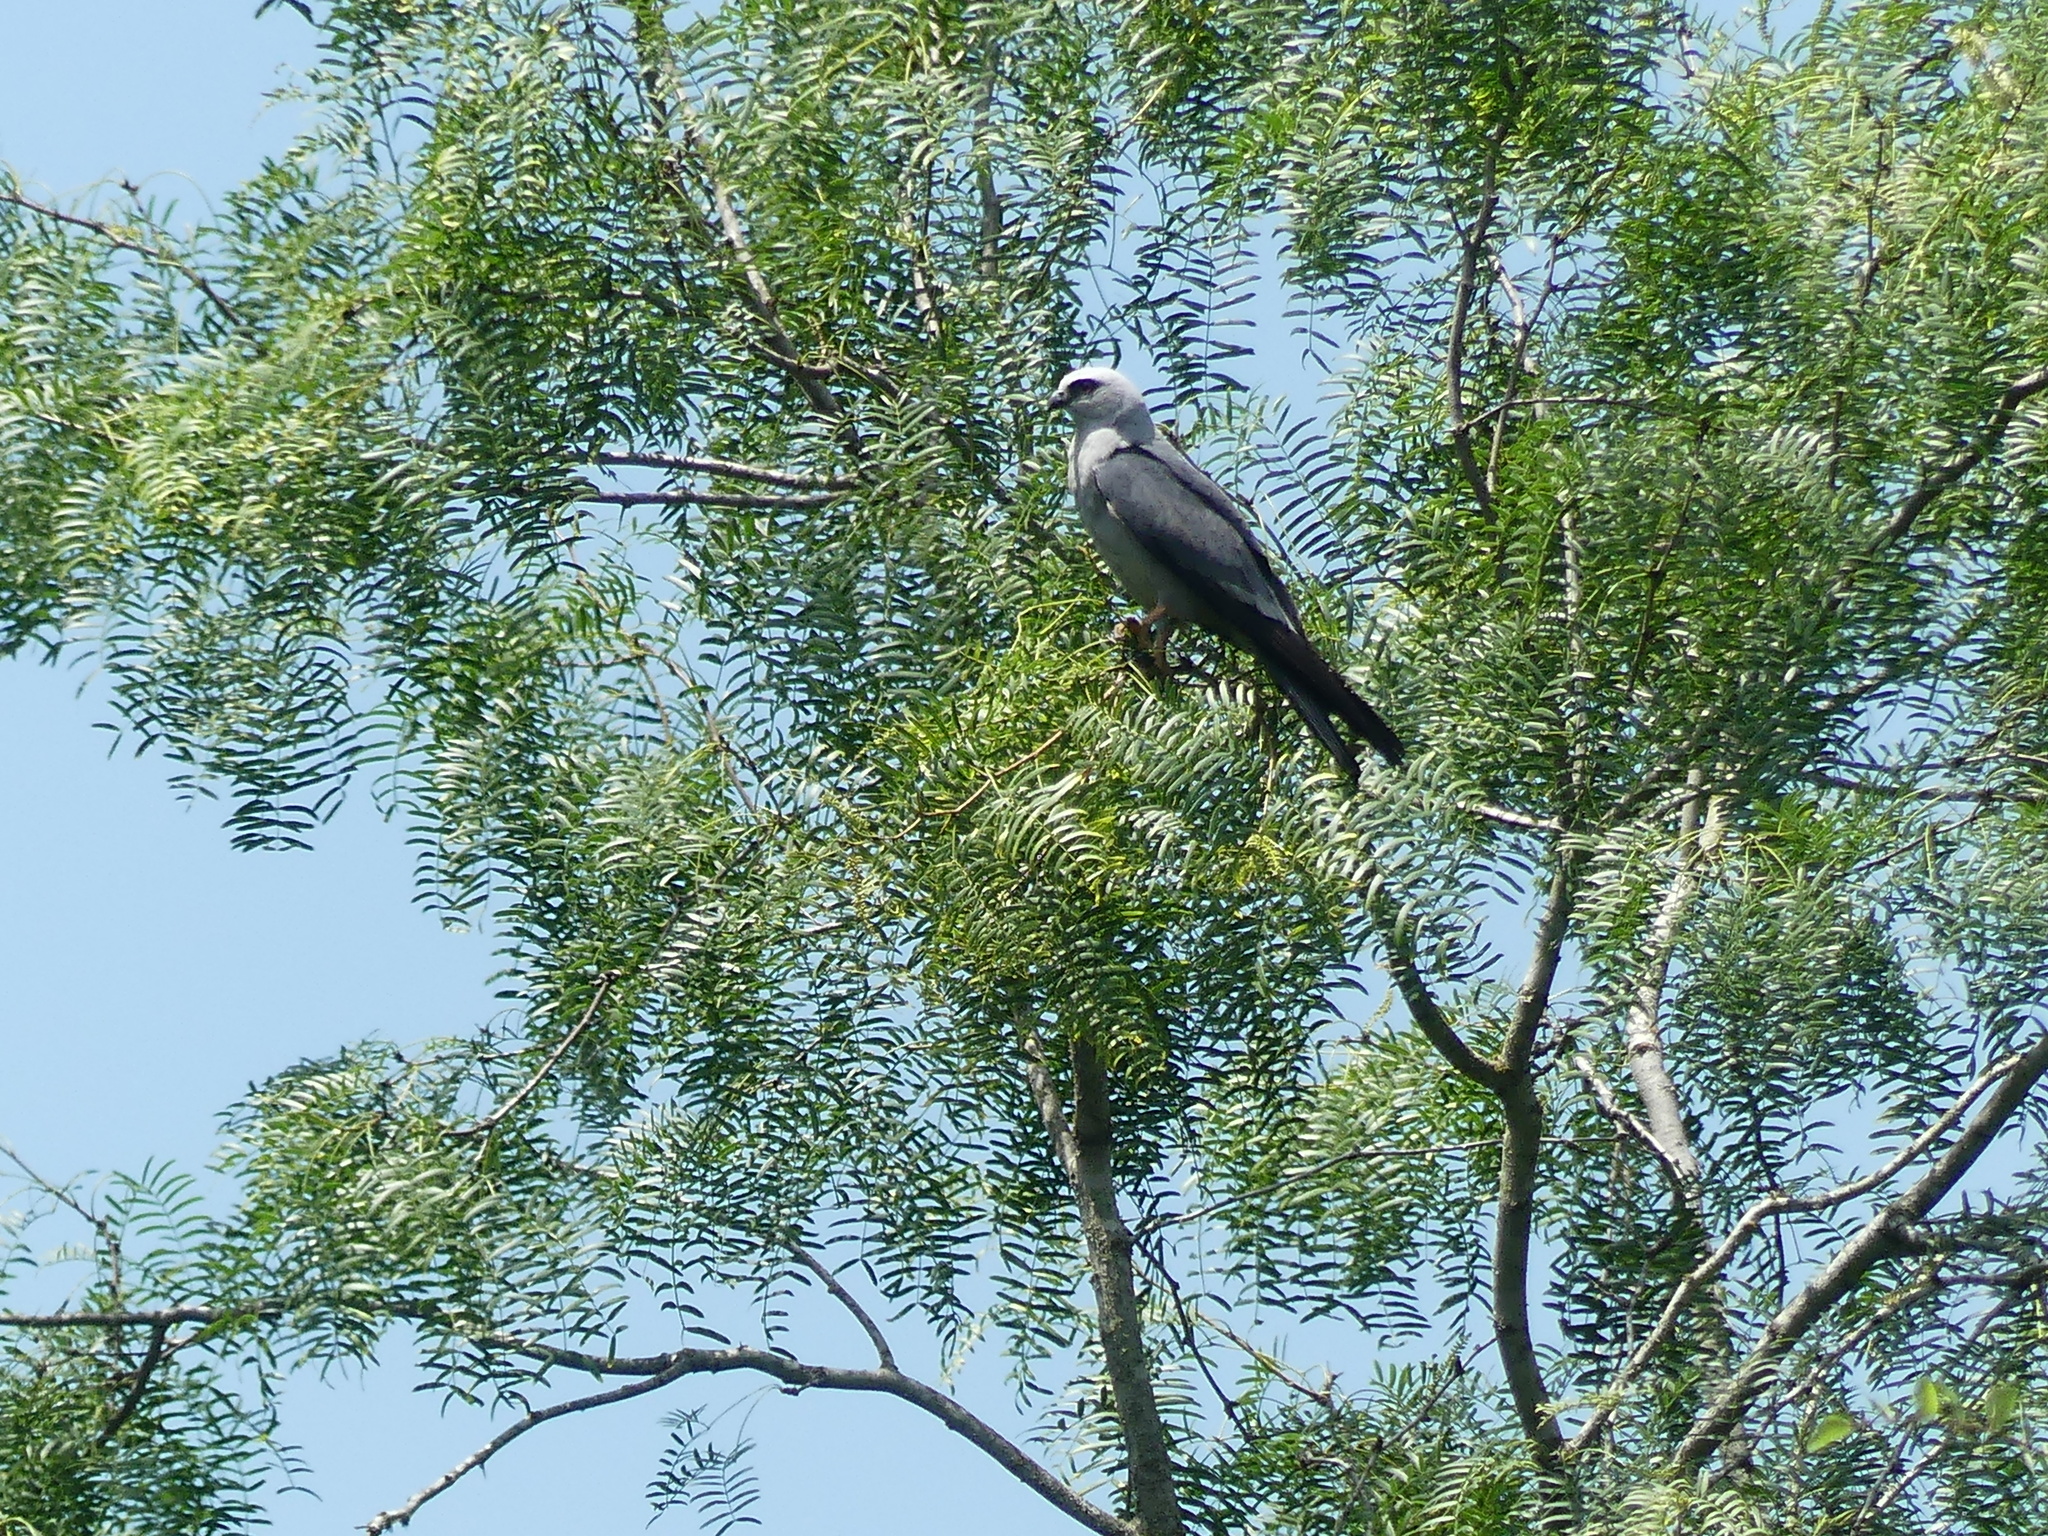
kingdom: Animalia
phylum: Chordata
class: Aves
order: Accipitriformes
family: Accipitridae
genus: Ictinia
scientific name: Ictinia mississippiensis
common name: Mississippi kite
